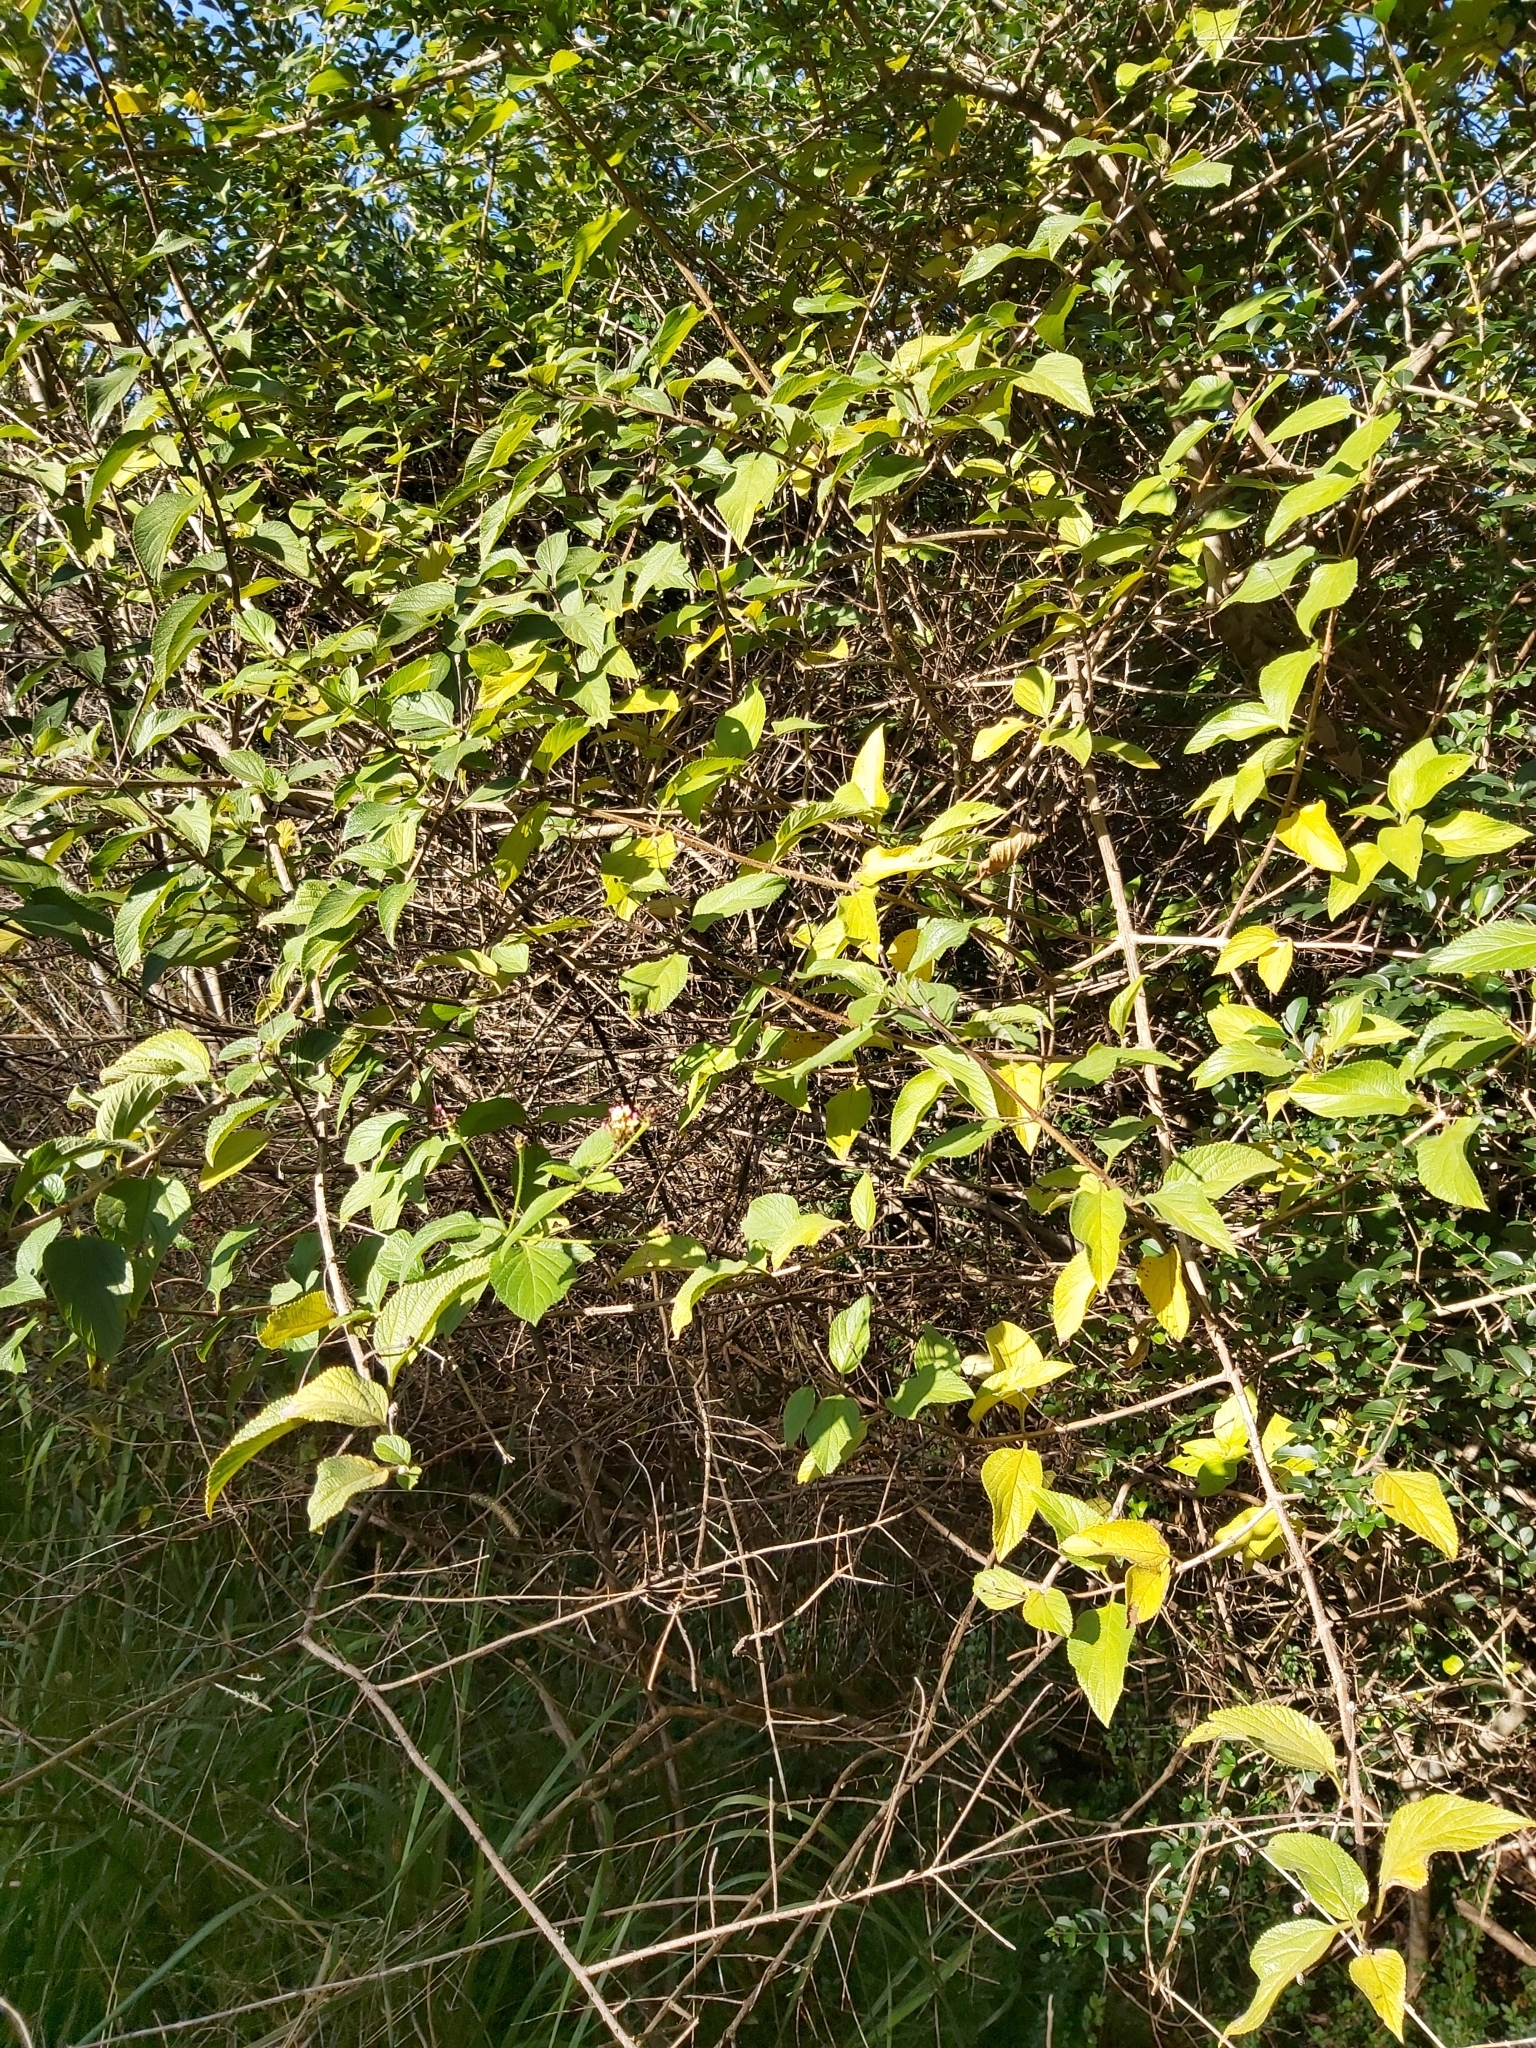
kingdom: Plantae
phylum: Tracheophyta
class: Magnoliopsida
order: Lamiales
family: Verbenaceae
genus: Lantana
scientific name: Lantana camara
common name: Lantana
